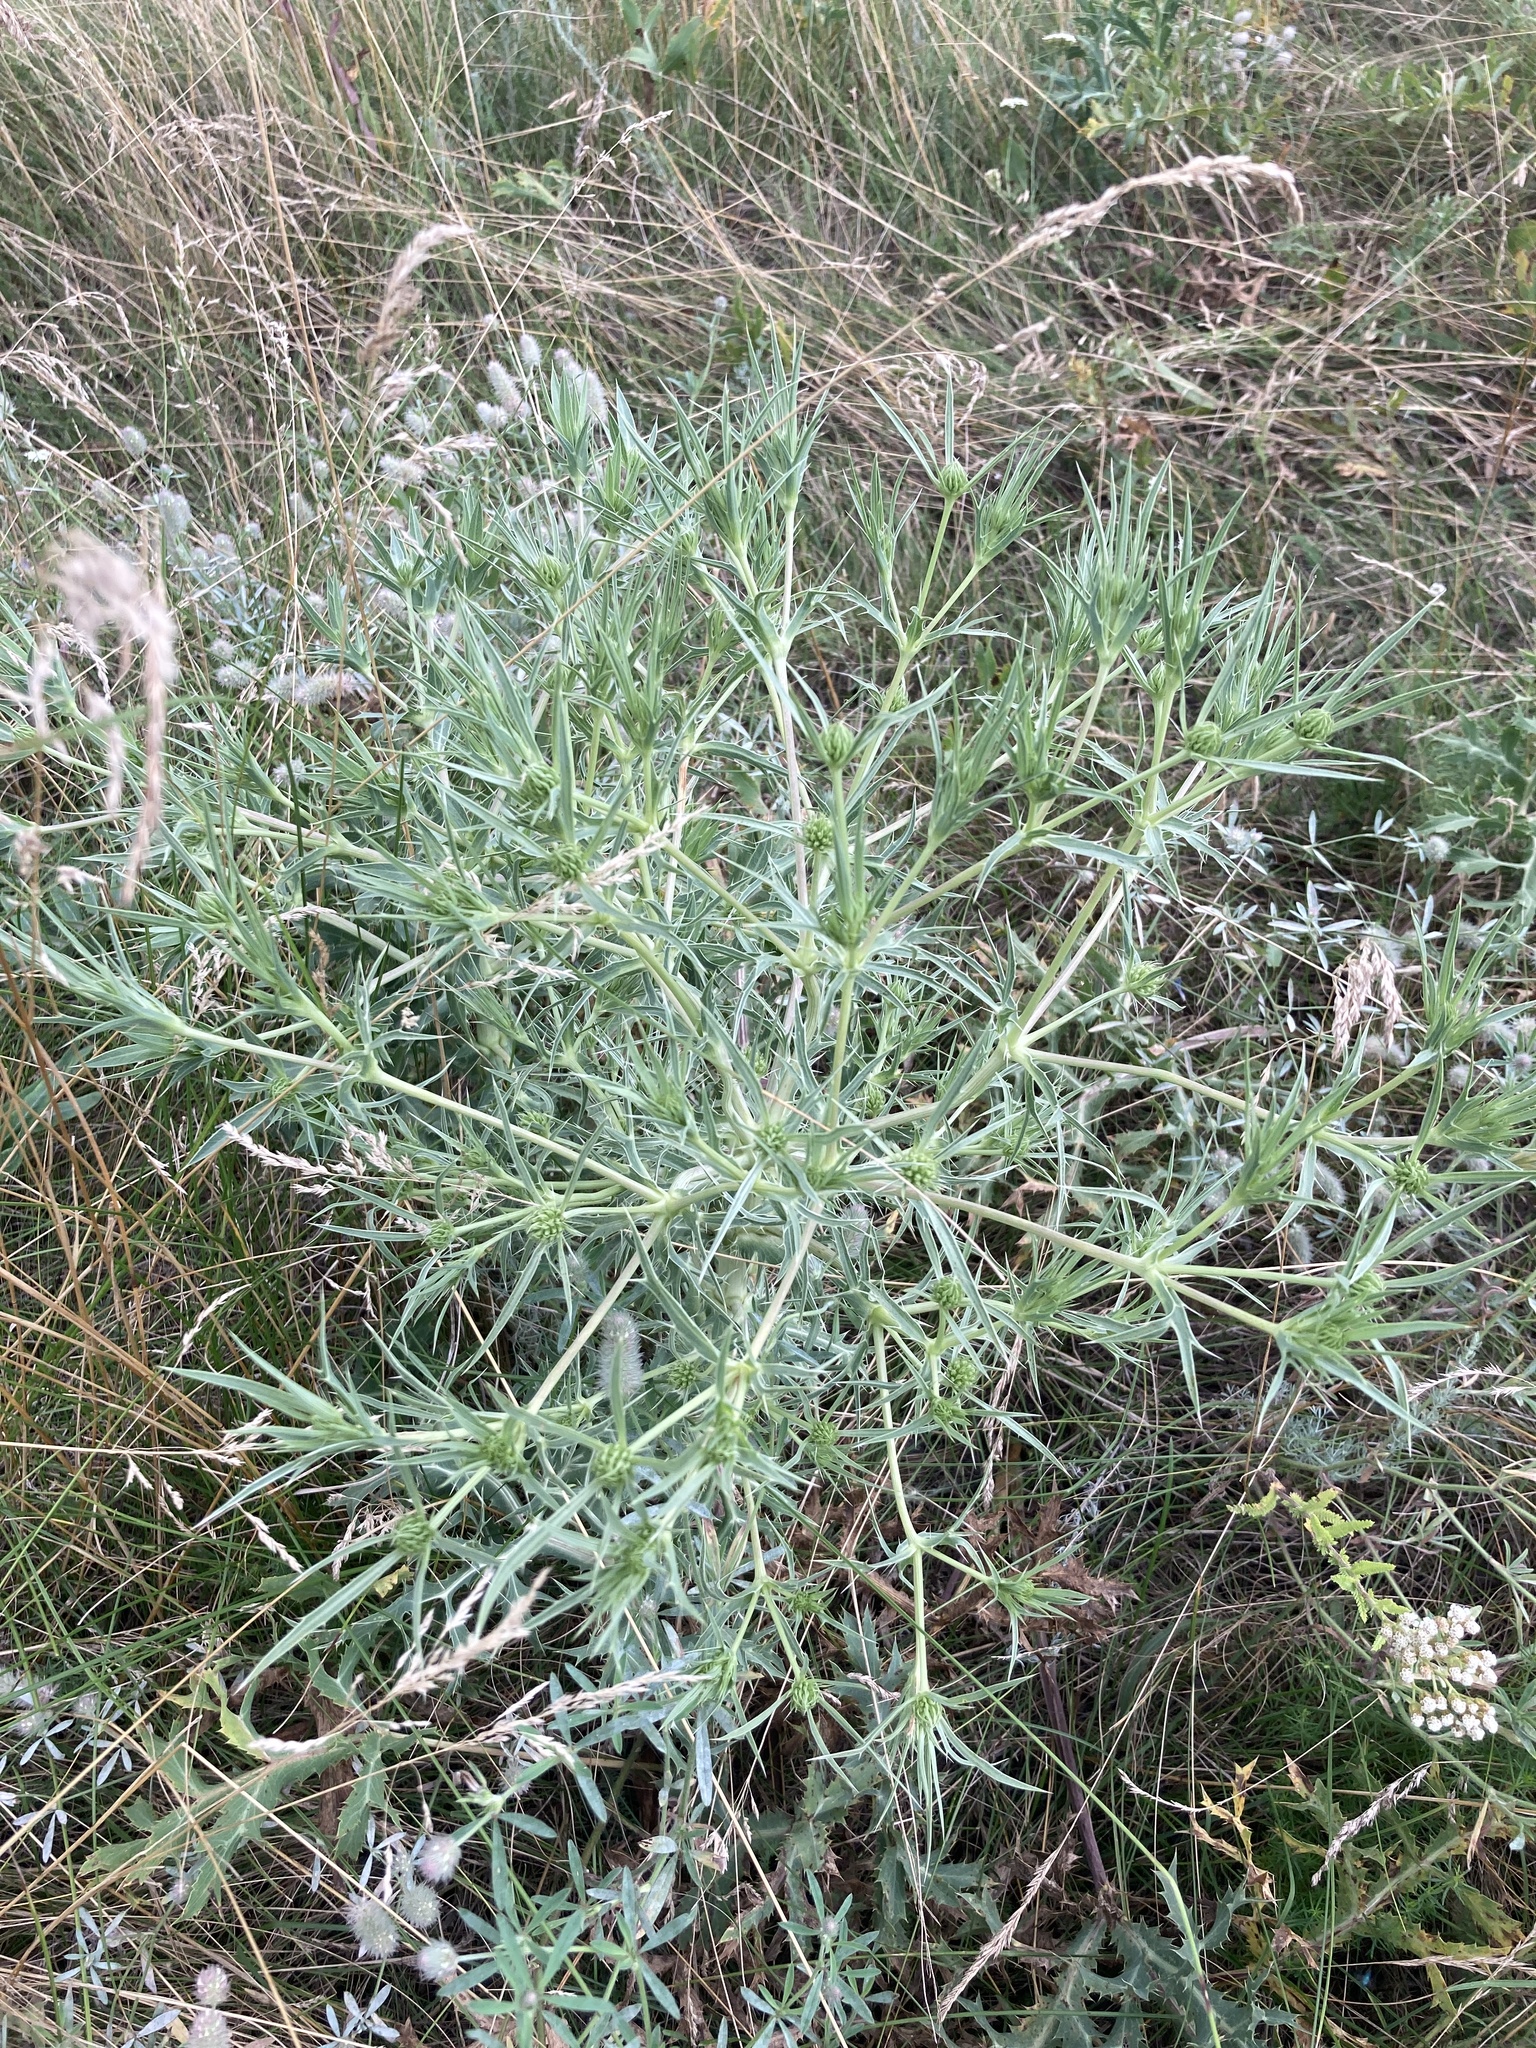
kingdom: Plantae
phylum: Tracheophyta
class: Magnoliopsida
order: Apiales
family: Apiaceae
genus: Eryngium
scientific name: Eryngium campestre
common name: Field eryngo
